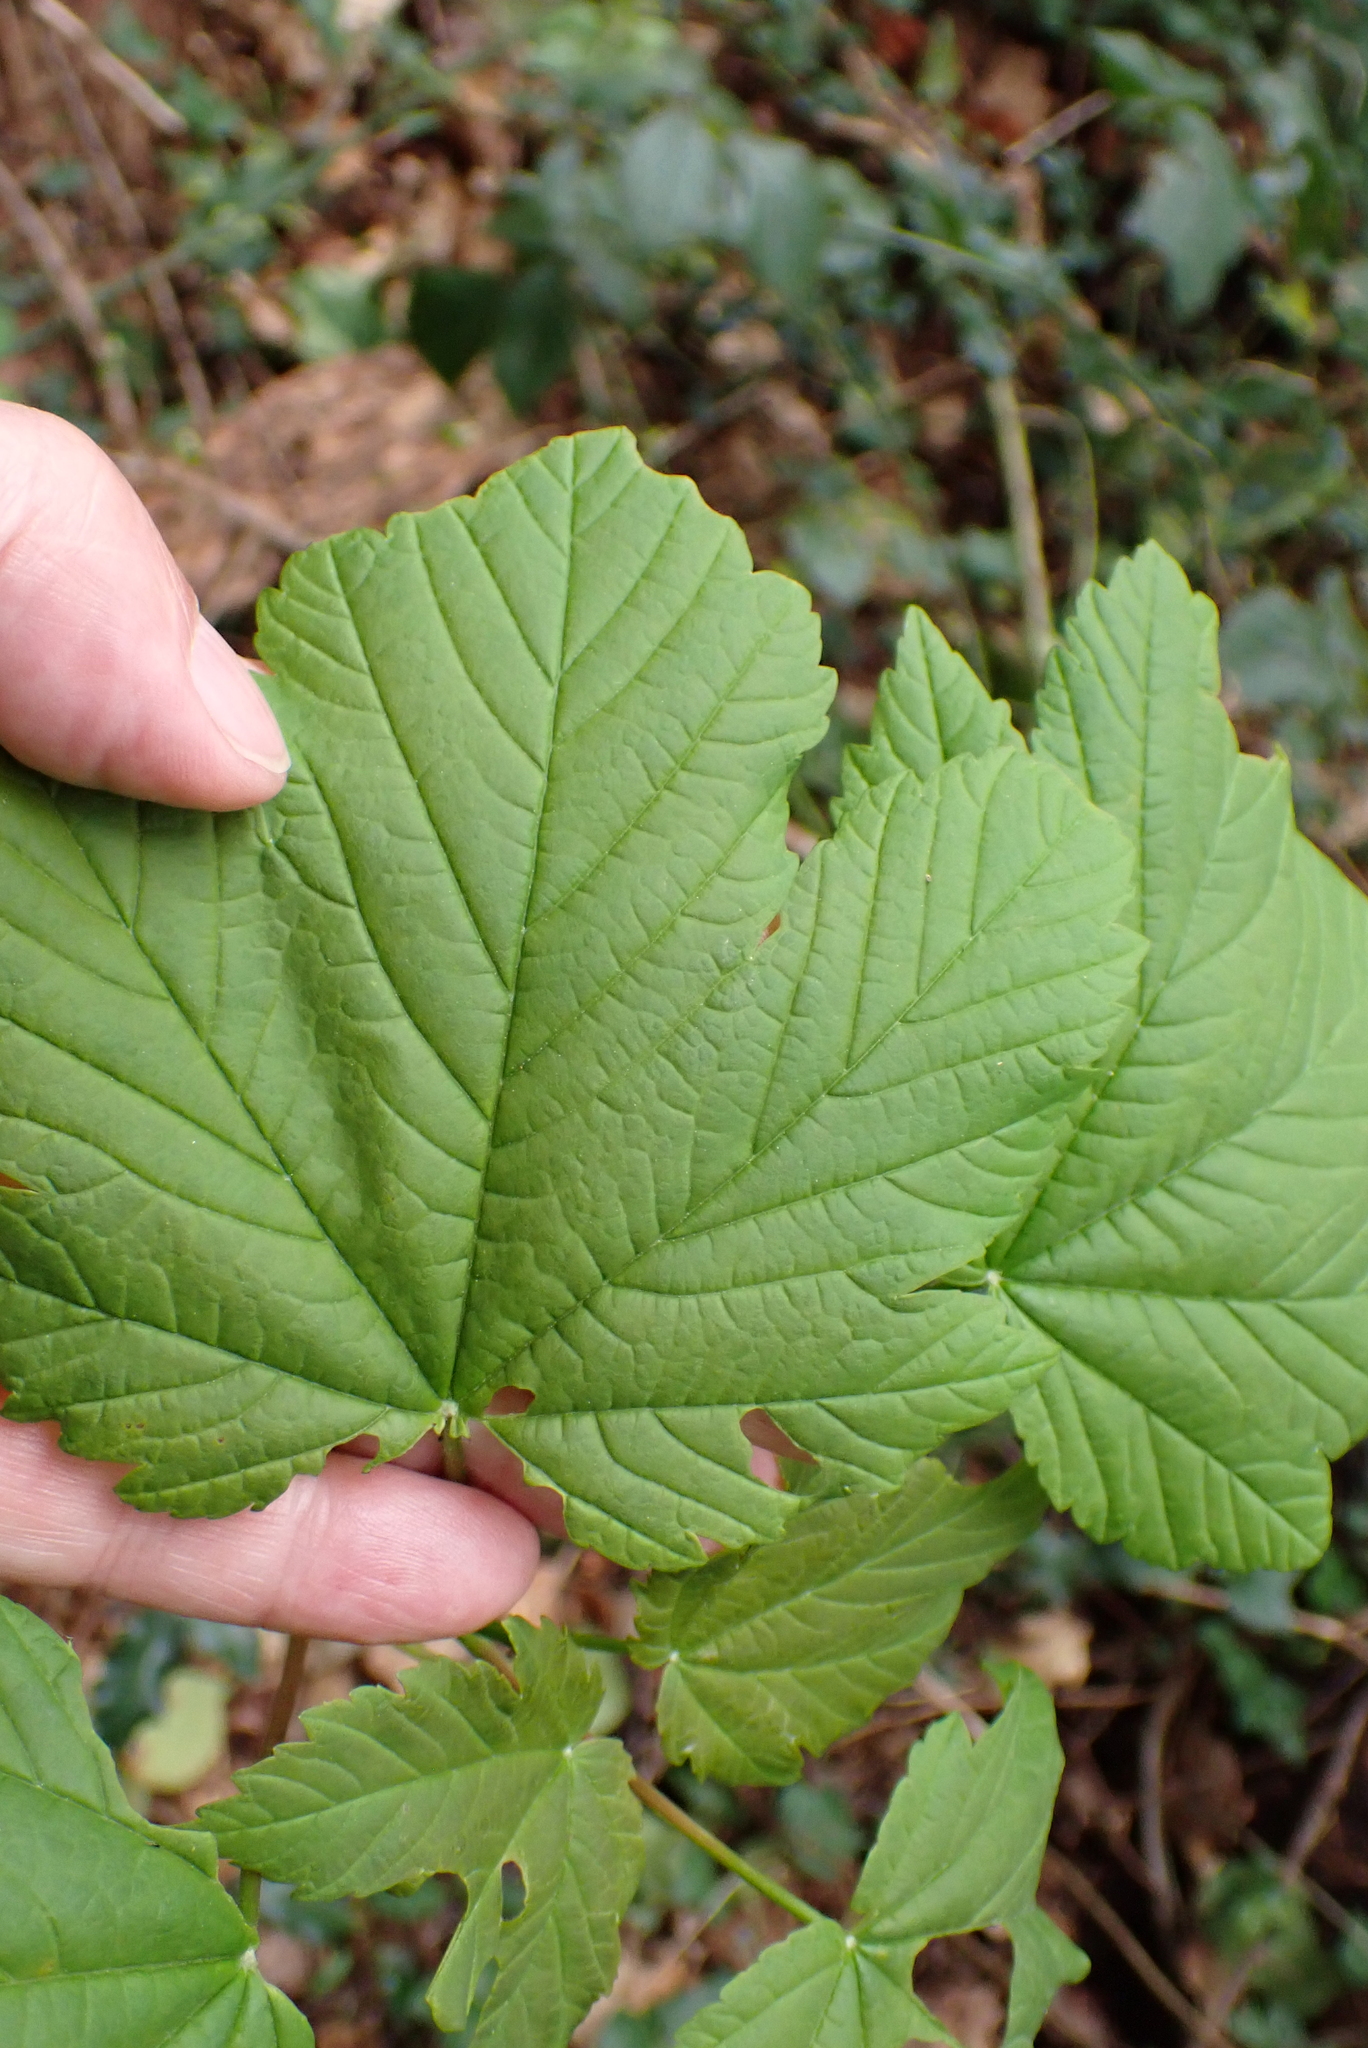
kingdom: Plantae
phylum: Tracheophyta
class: Magnoliopsida
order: Sapindales
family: Sapindaceae
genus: Acer
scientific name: Acer pseudoplatanus
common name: Sycamore
